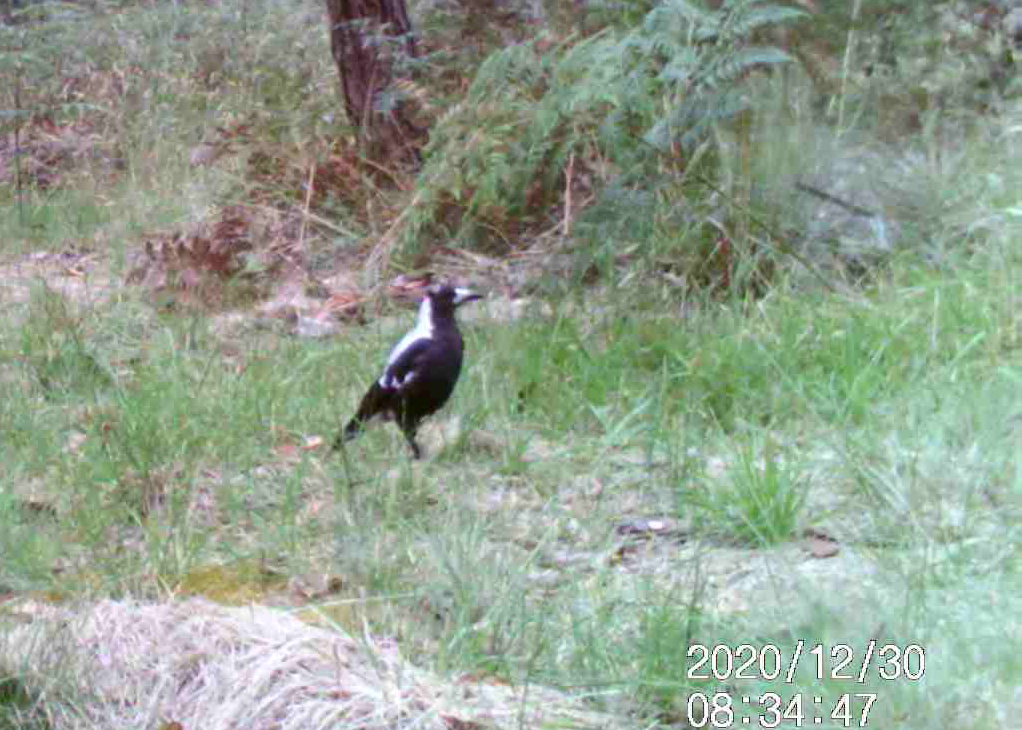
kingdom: Animalia
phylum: Chordata
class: Aves
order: Passeriformes
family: Cracticidae
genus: Gymnorhina
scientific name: Gymnorhina tibicen
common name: Australian magpie
